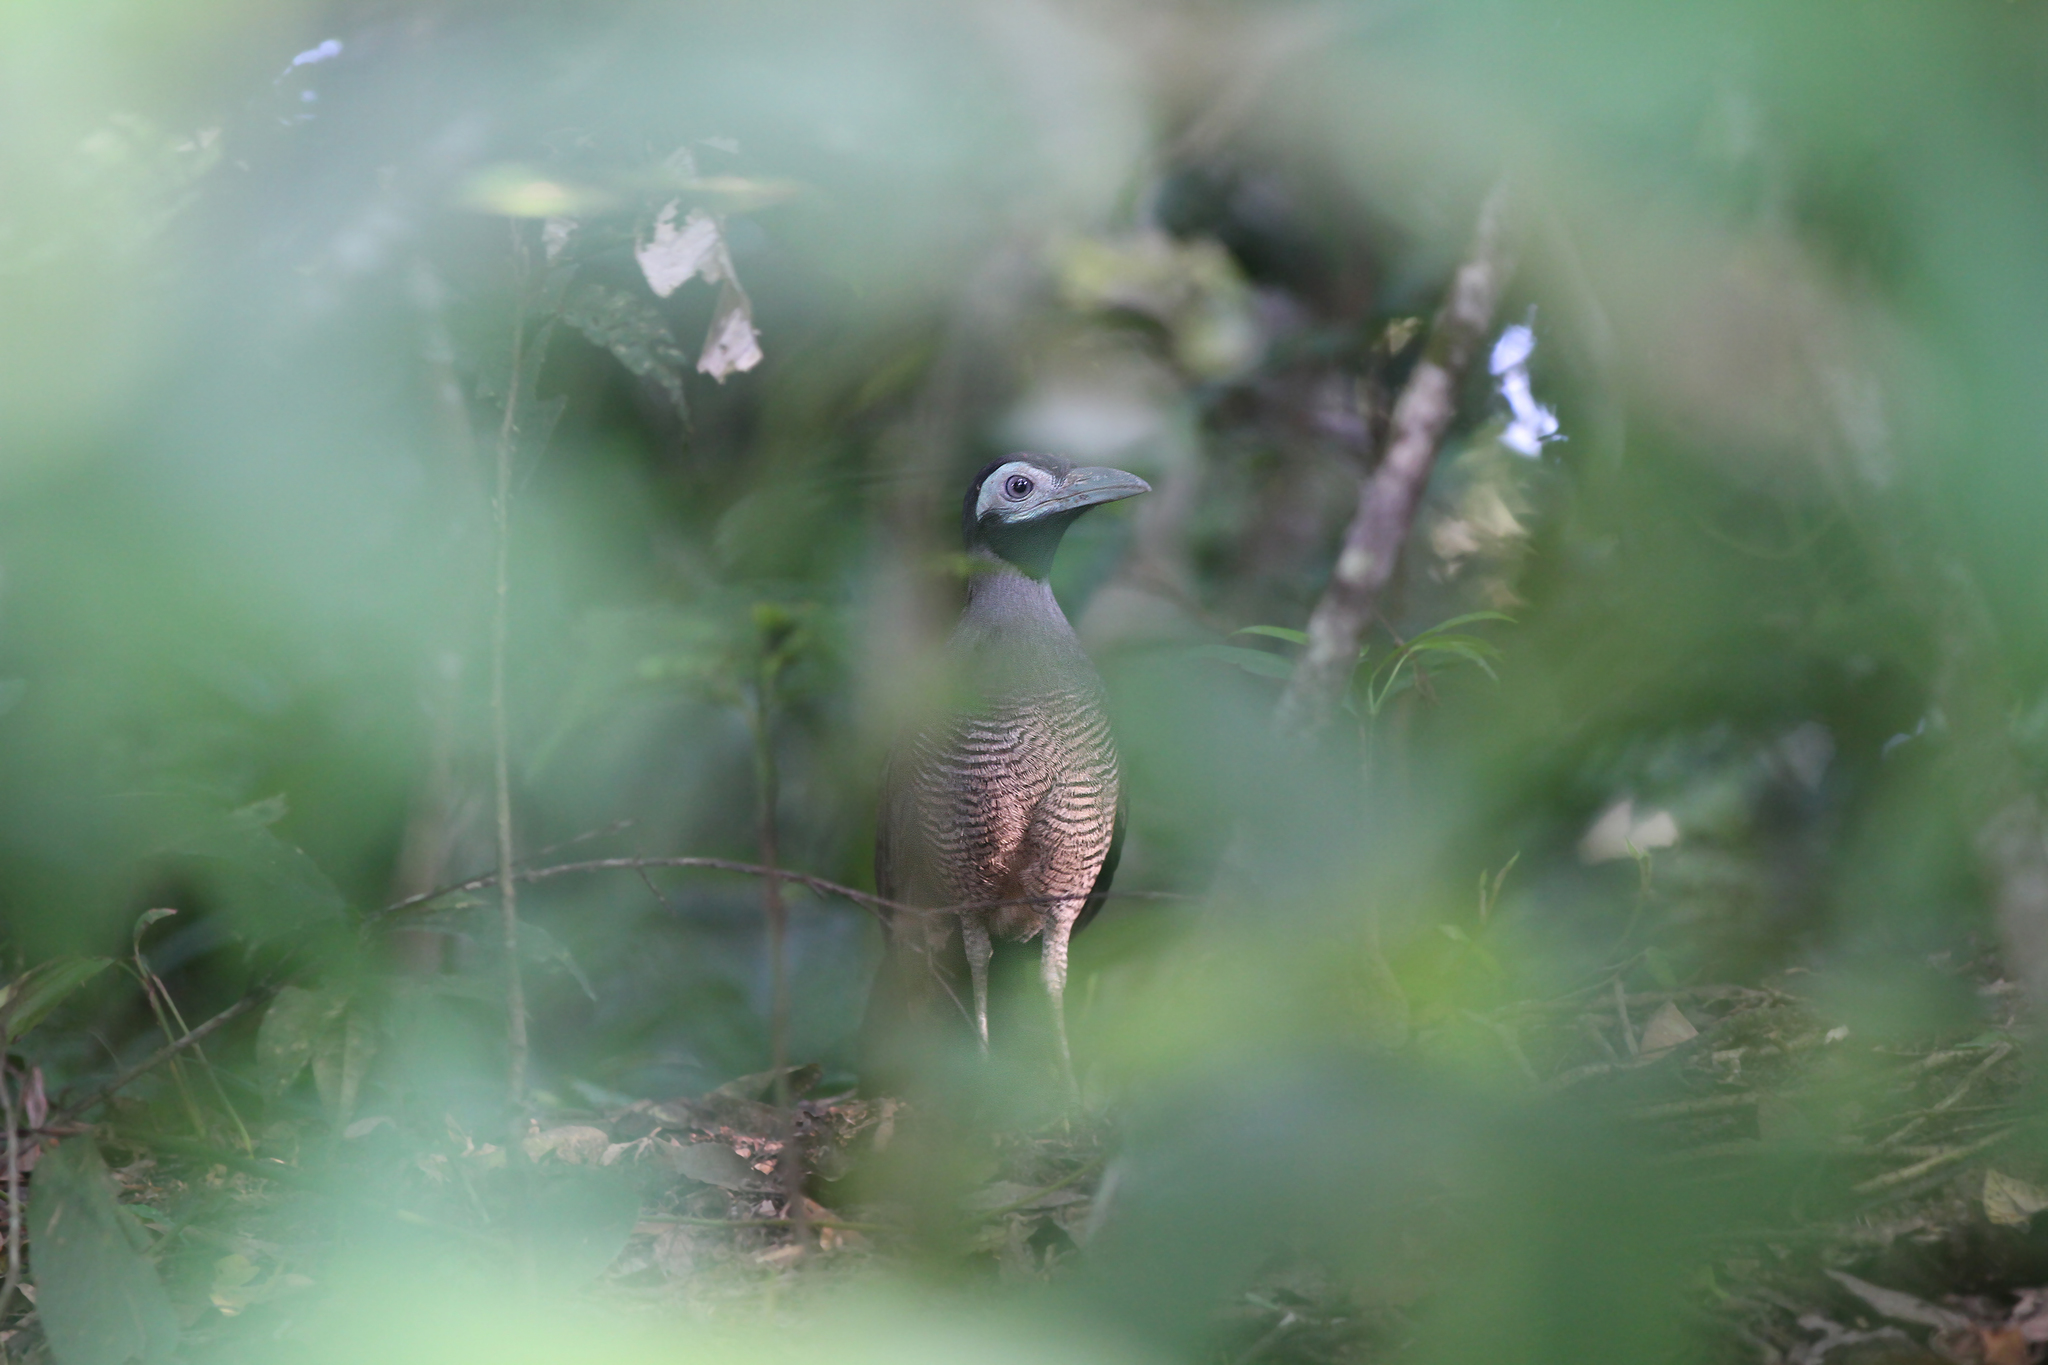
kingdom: Animalia
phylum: Chordata
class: Aves
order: Cuculiformes
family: Cuculidae
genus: Carpococcyx
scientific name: Carpococcyx radiceus
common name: Bornean ground-cuckoo
